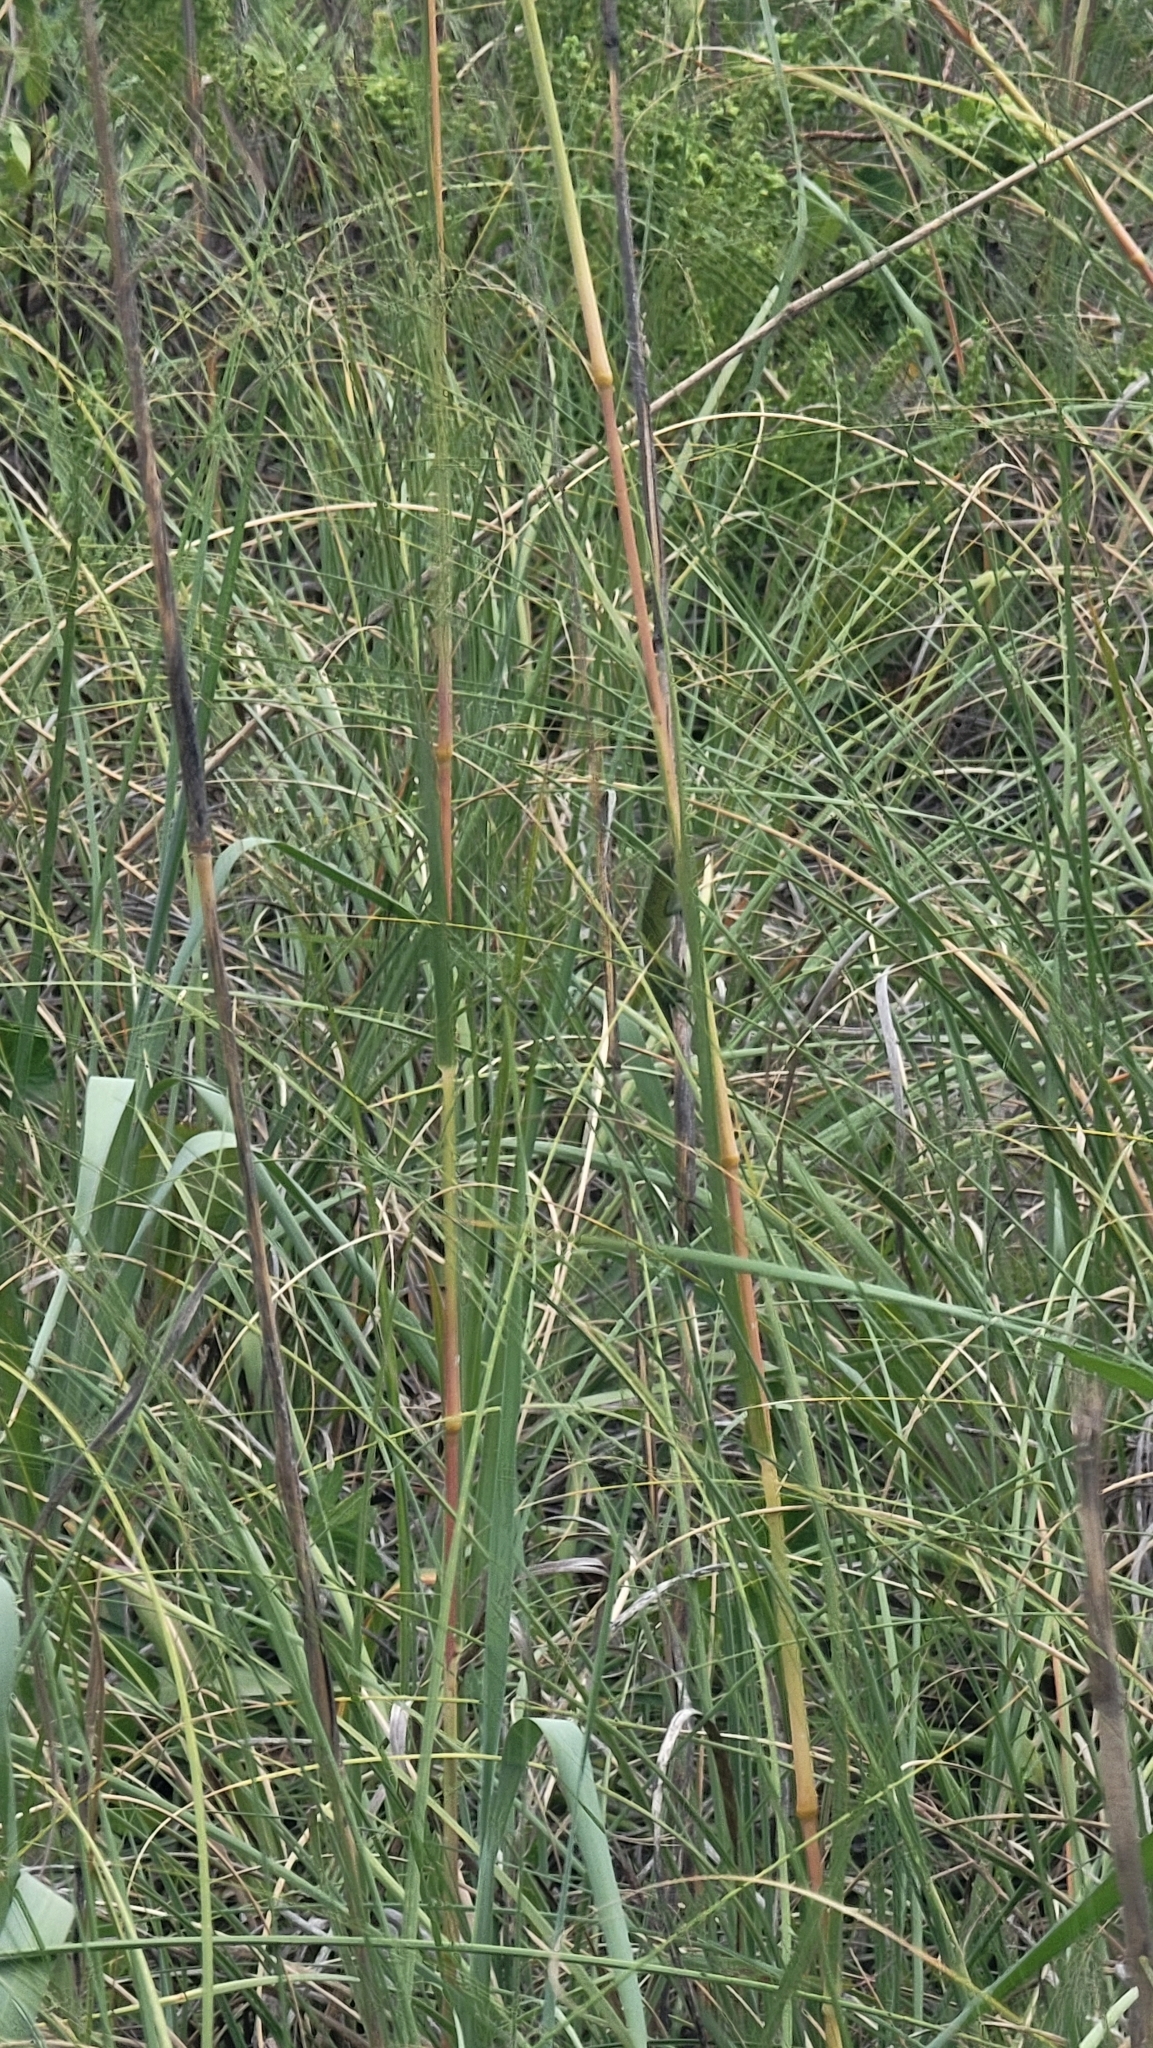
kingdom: Animalia
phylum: Chordata
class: Squamata
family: Dactyloidae
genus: Anolis
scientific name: Anolis carolinensis
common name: Green anole
